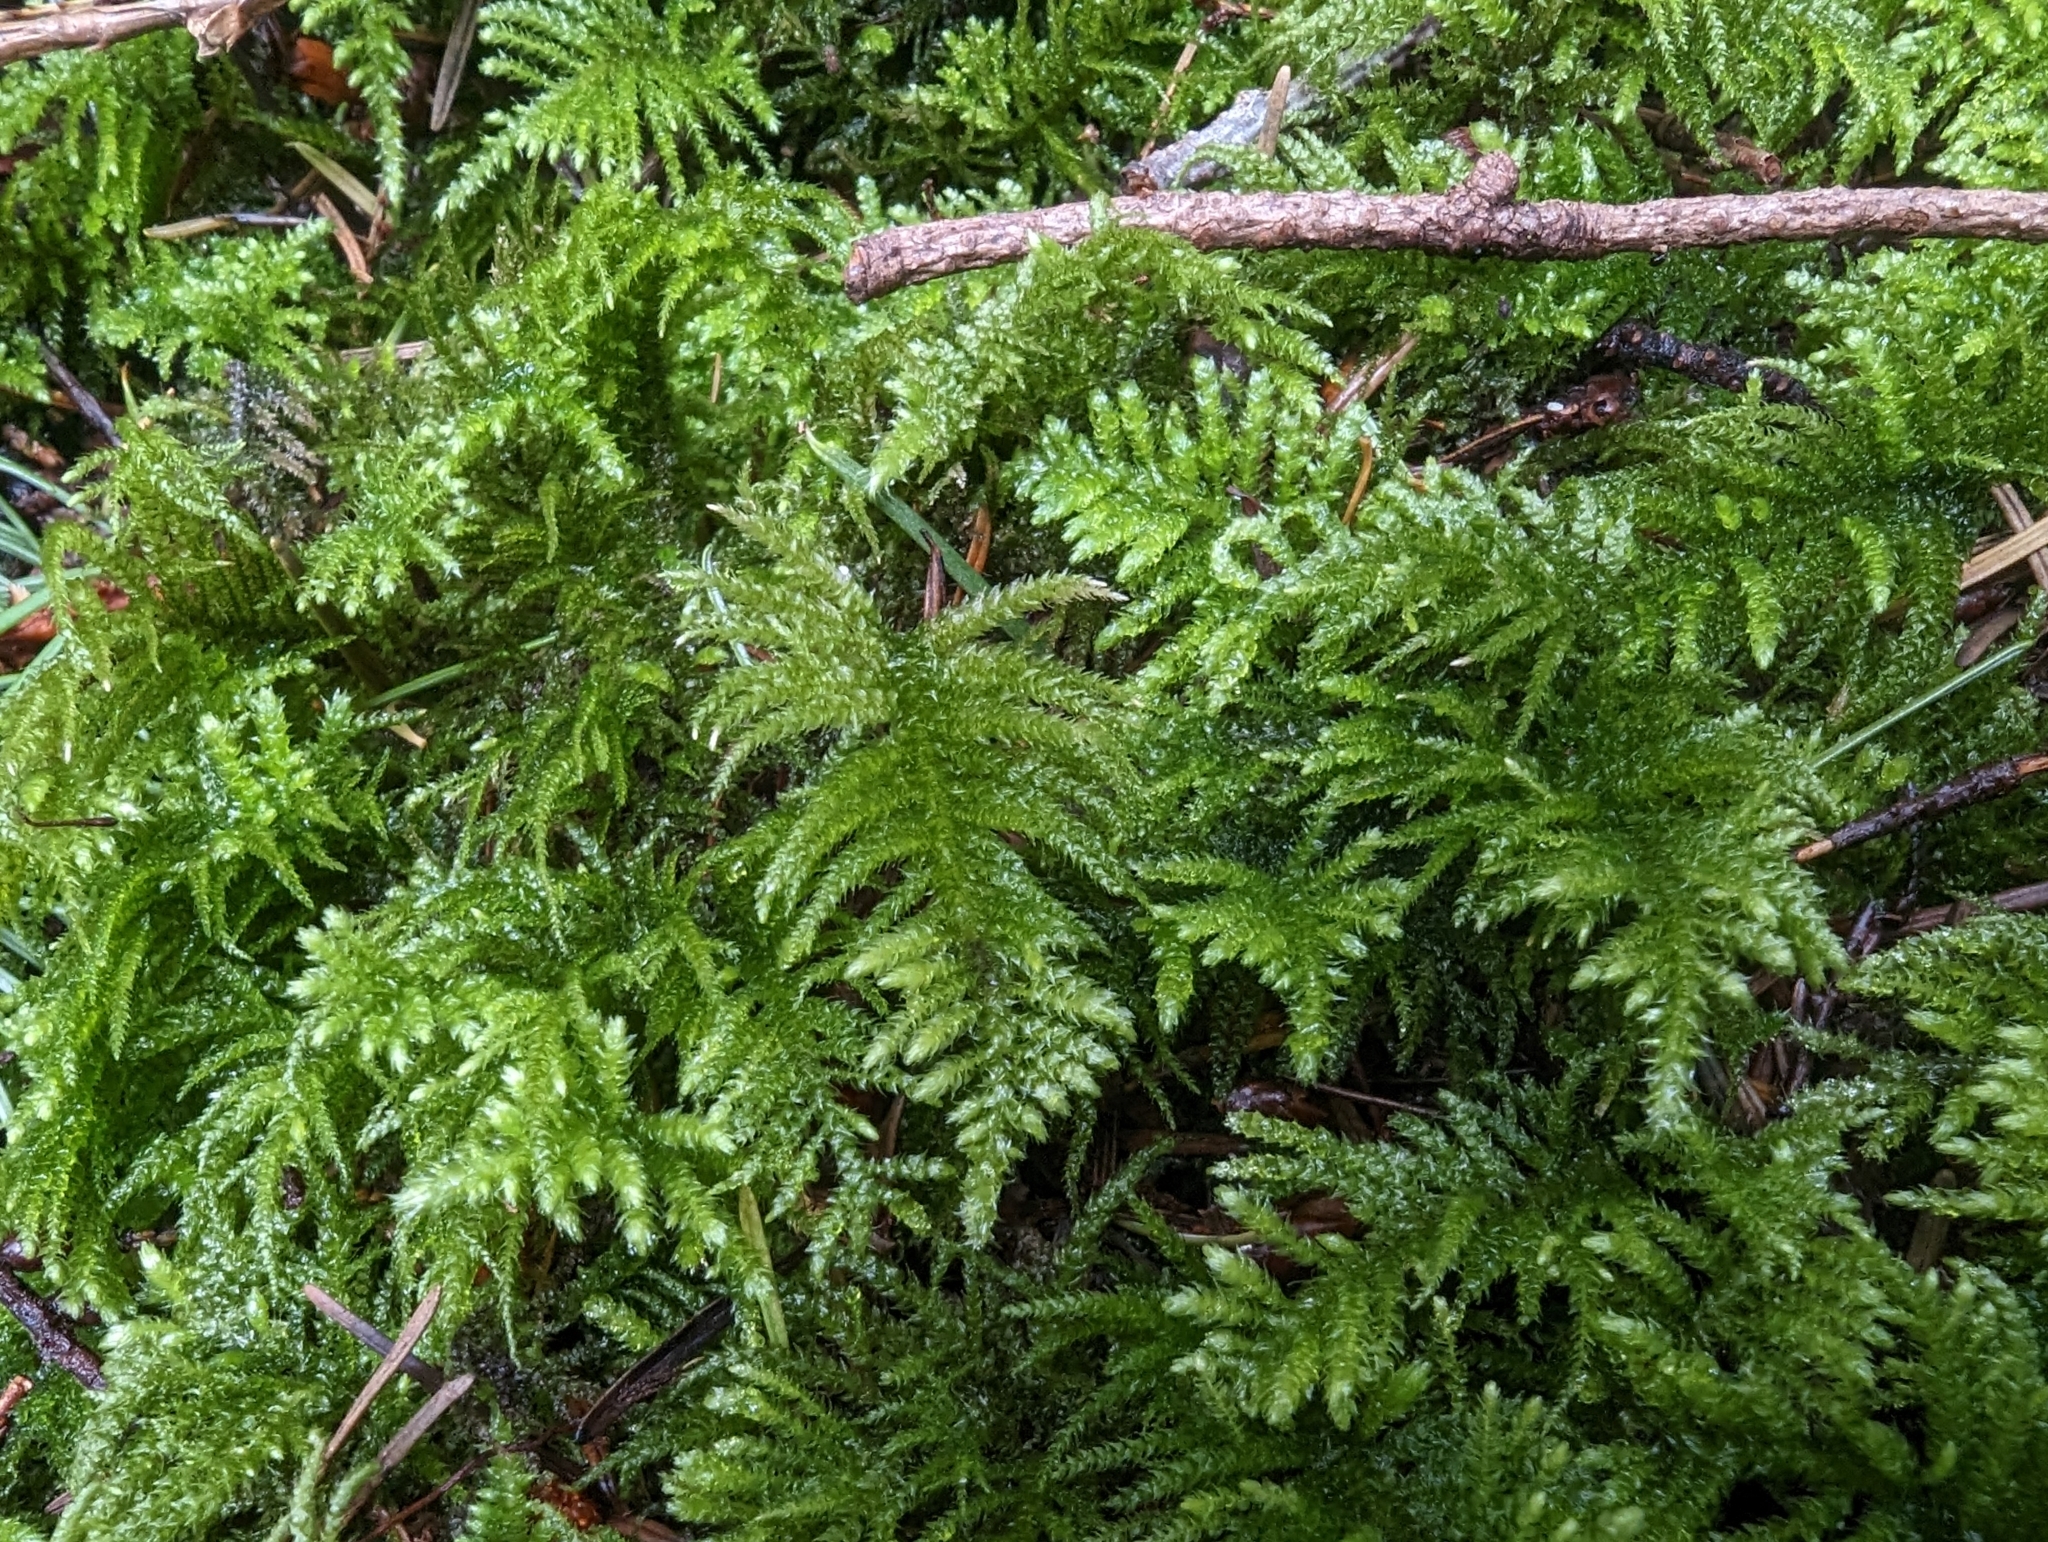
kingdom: Plantae
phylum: Bryophyta
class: Bryopsida
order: Hypnales
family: Brachytheciaceae
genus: Kindbergia
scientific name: Kindbergia oregana
